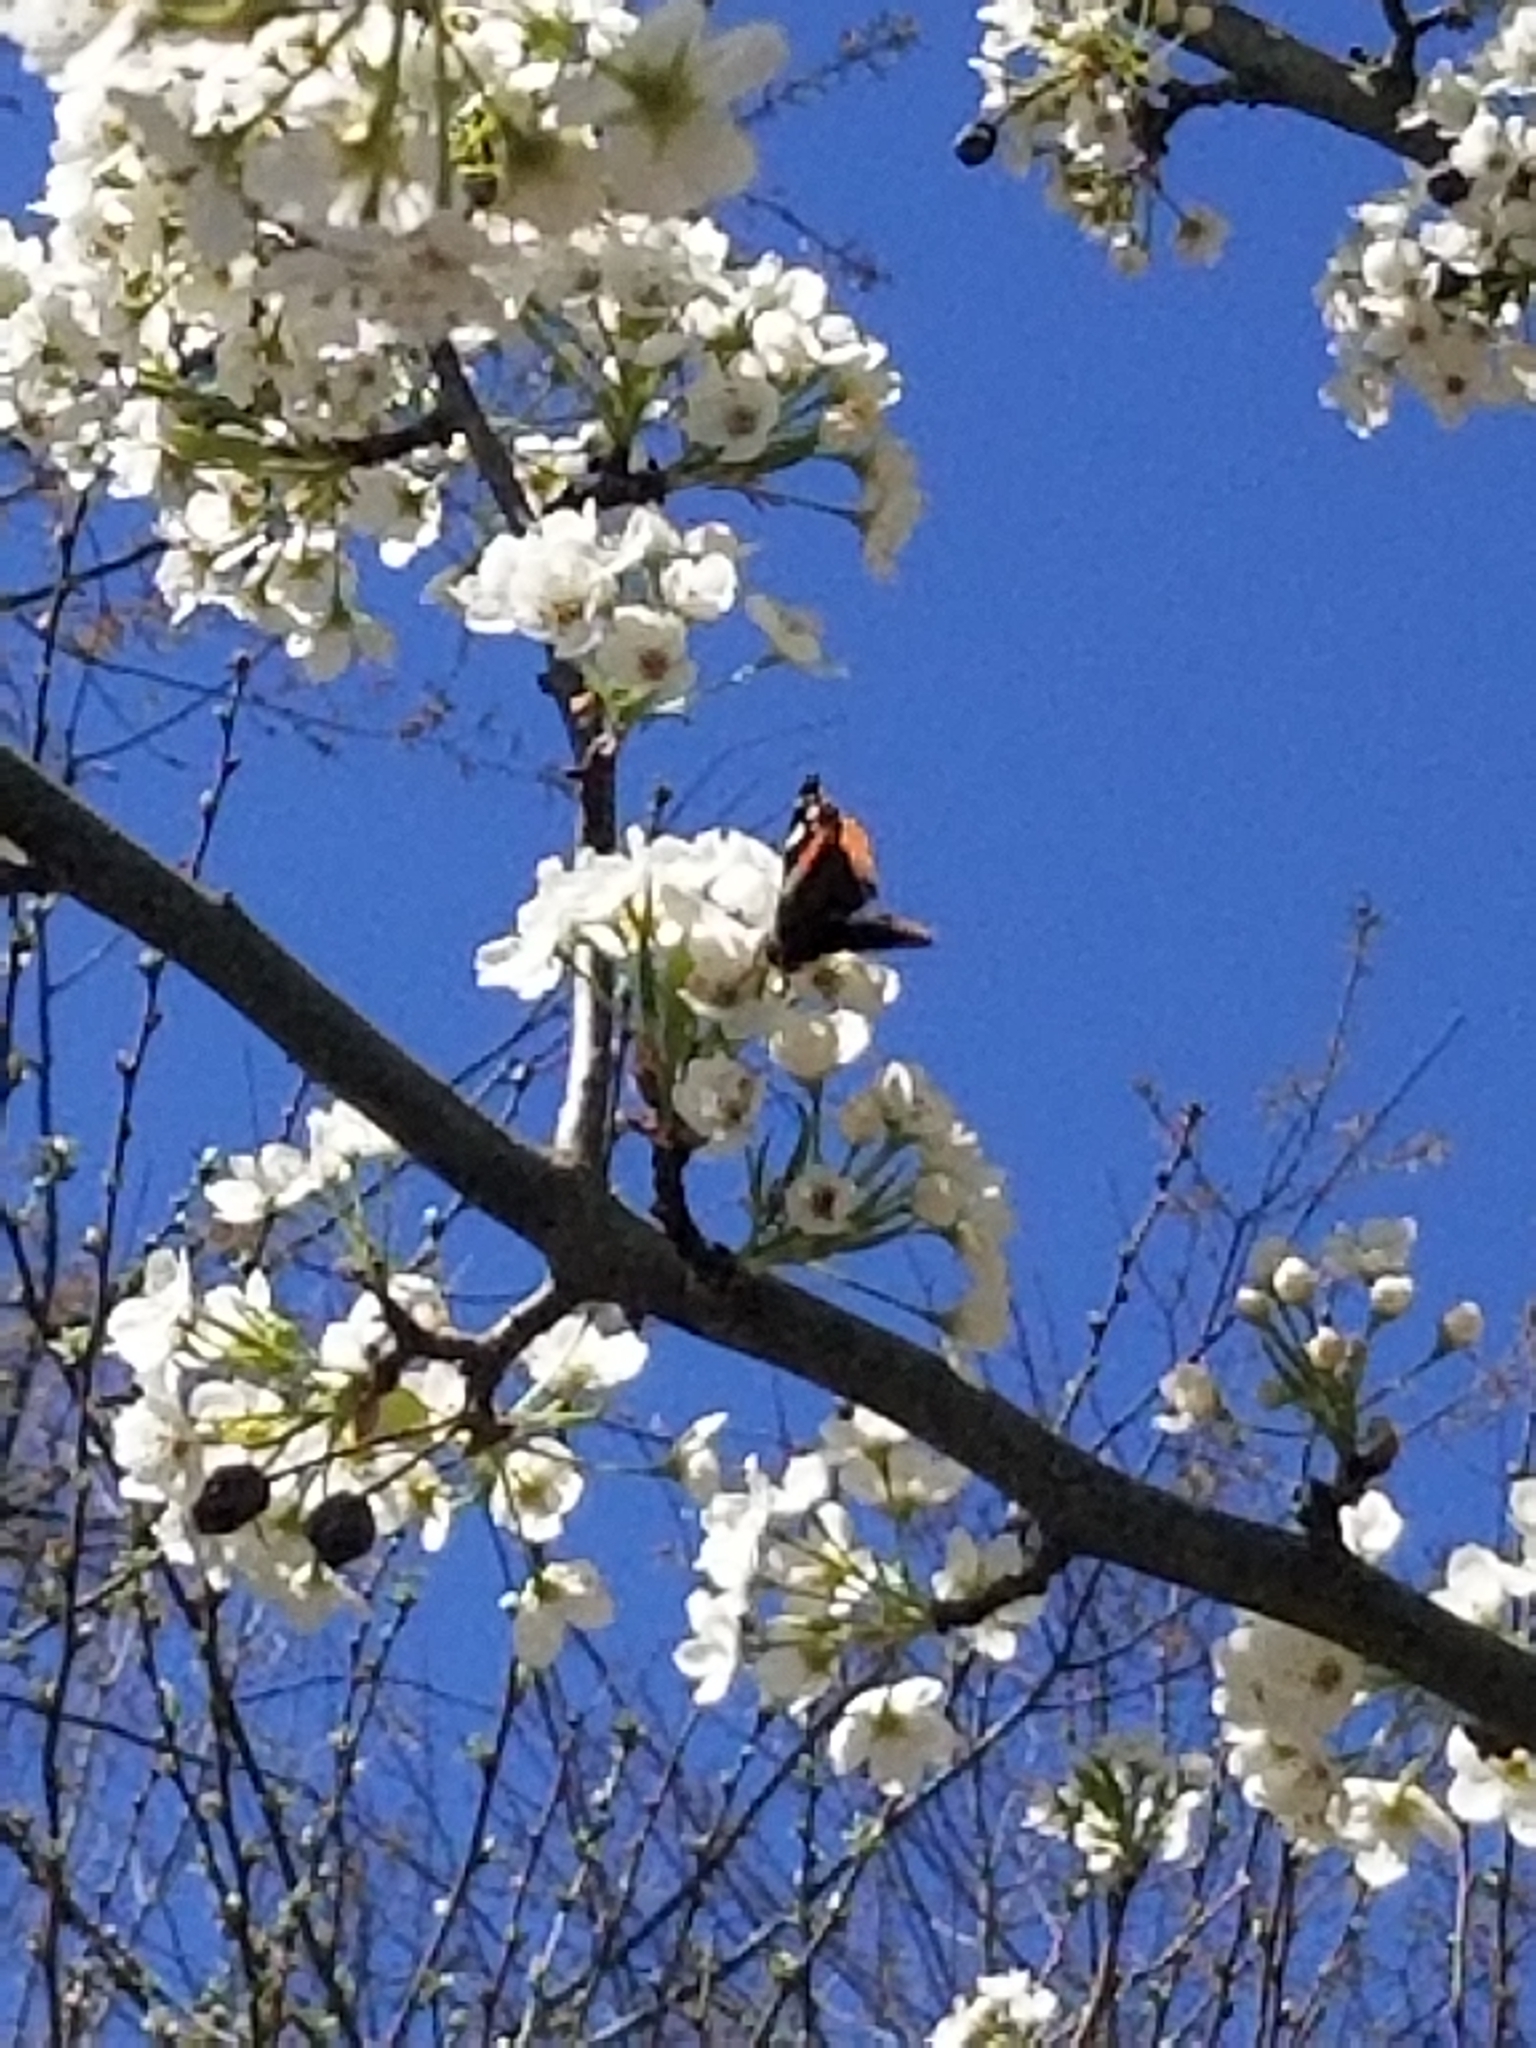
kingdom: Animalia
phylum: Arthropoda
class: Insecta
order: Lepidoptera
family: Nymphalidae
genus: Vanessa
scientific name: Vanessa atalanta
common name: Red admiral
